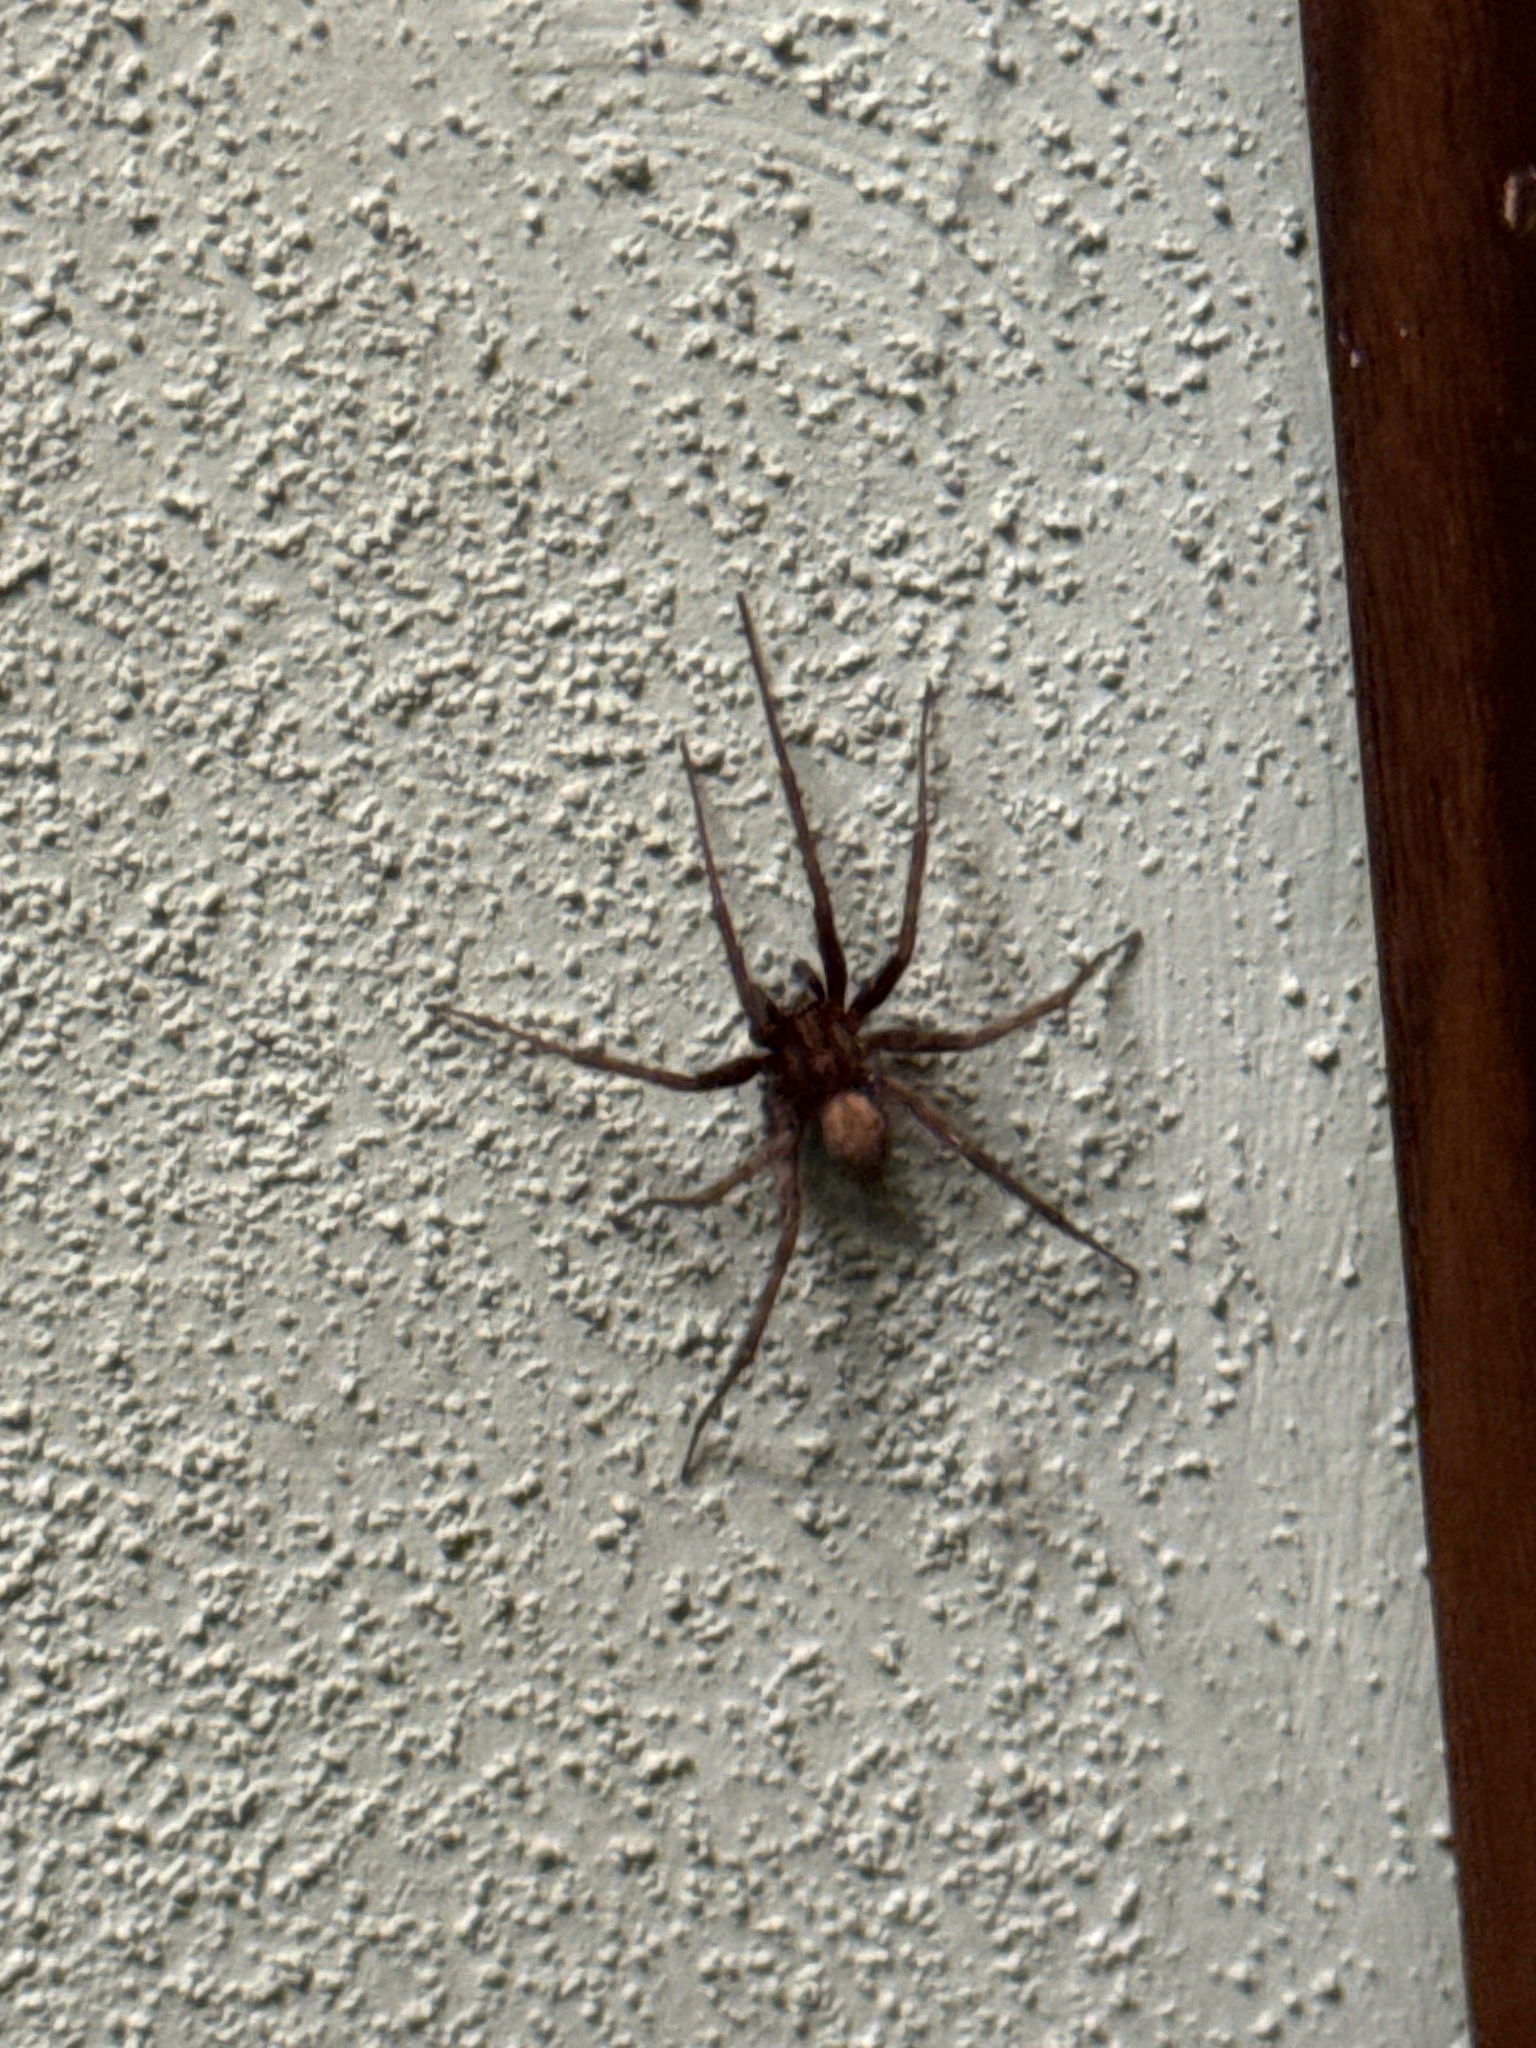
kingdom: Animalia
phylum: Arthropoda
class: Arachnida
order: Araneae
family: Agelenidae
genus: Tegenaria
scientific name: Tegenaria domestica
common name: Barn funnel weaver
